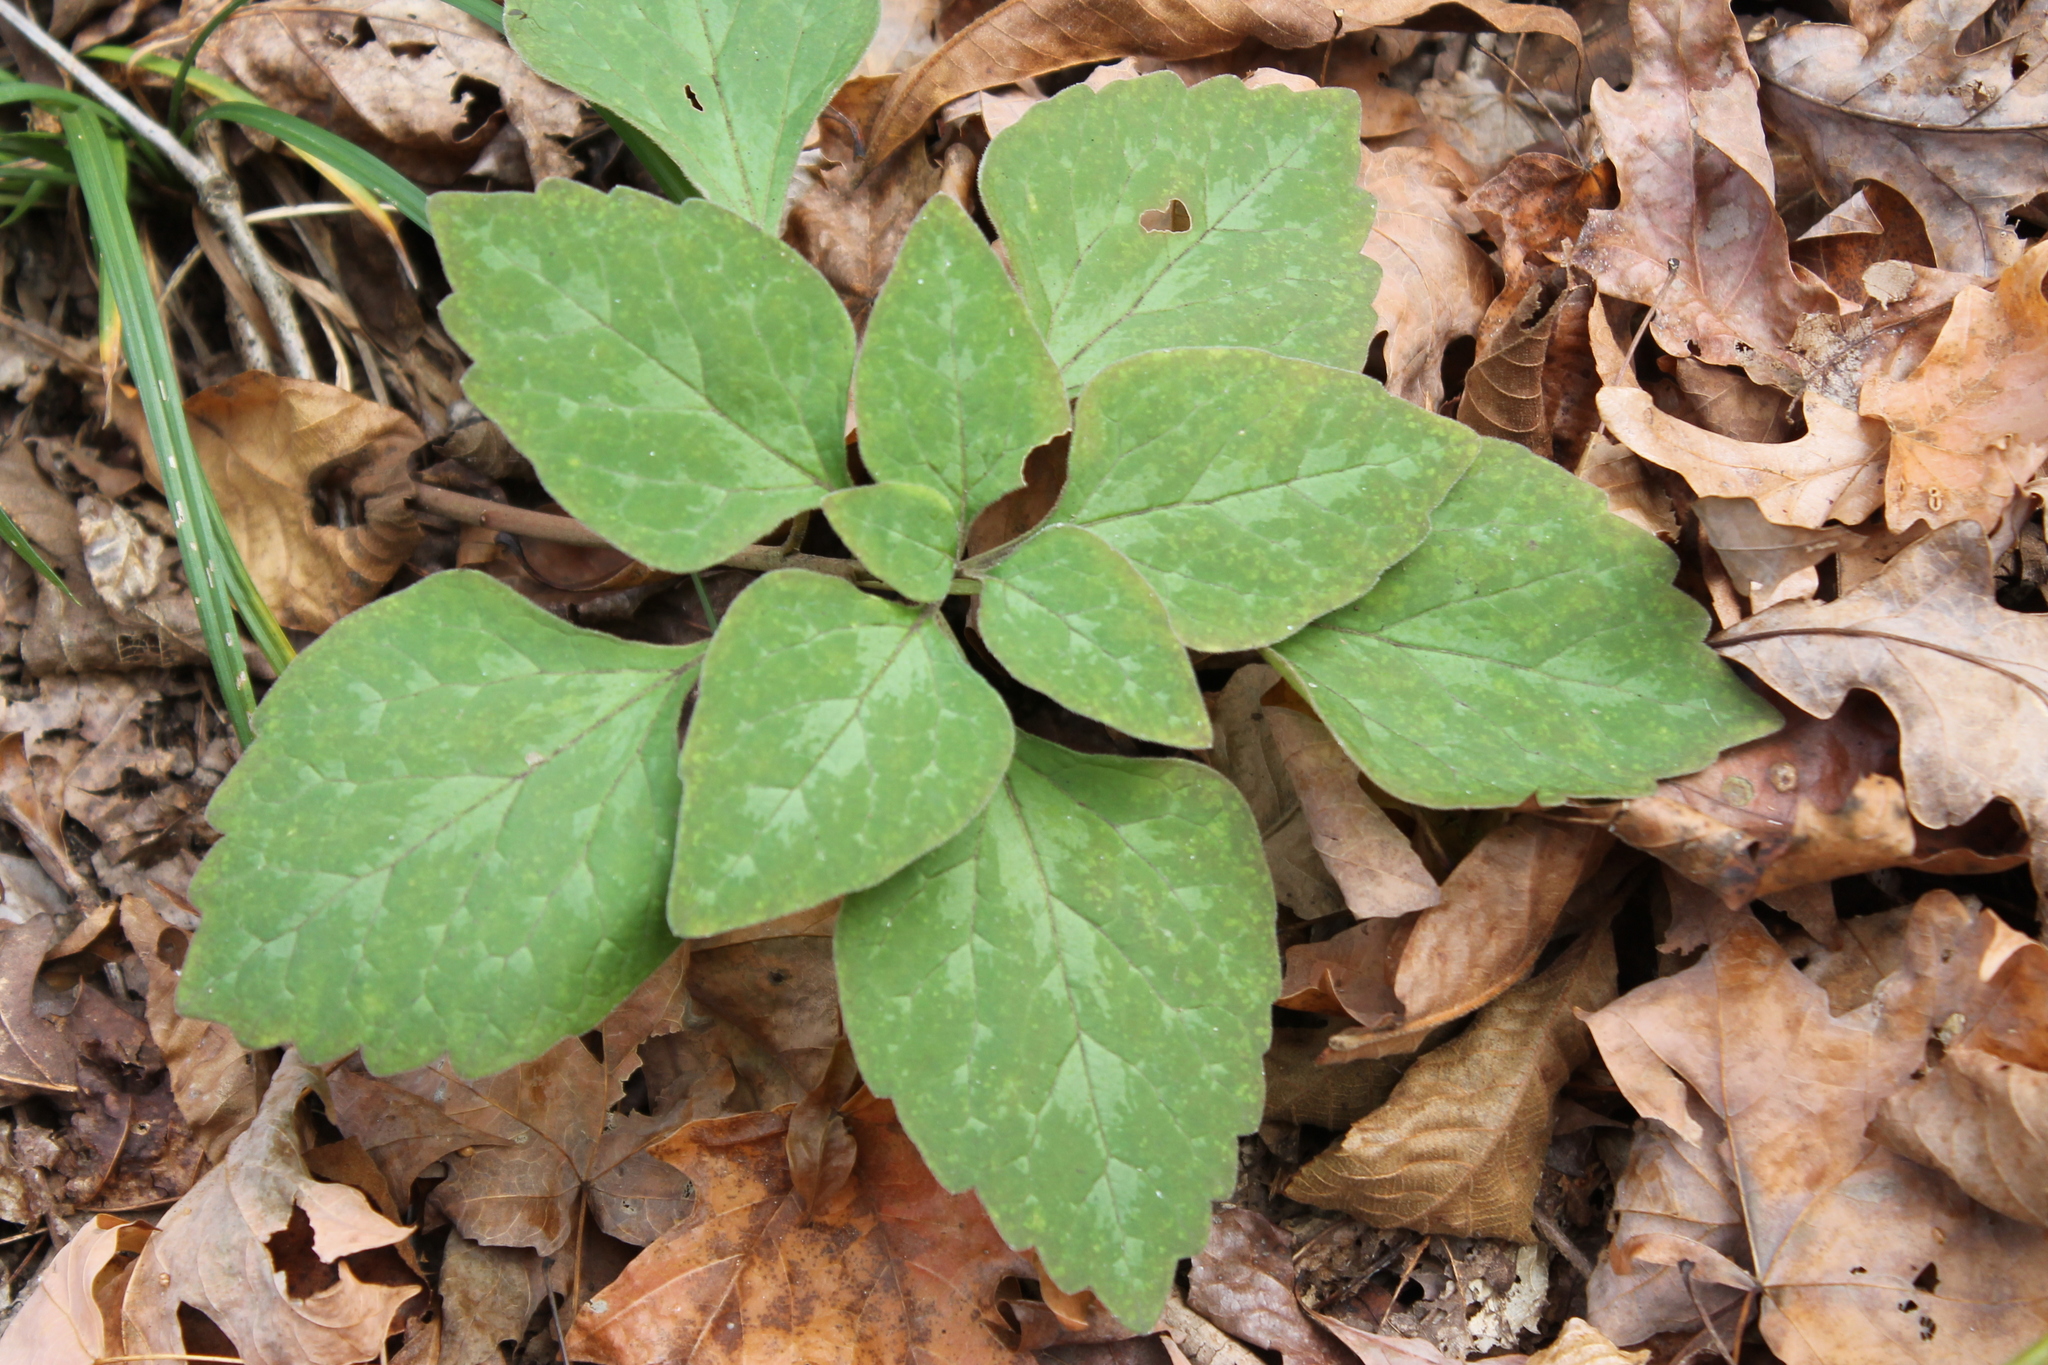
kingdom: Plantae
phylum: Tracheophyta
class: Magnoliopsida
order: Buxales
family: Buxaceae
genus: Pachysandra
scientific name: Pachysandra procumbens
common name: Mountain-spurge
